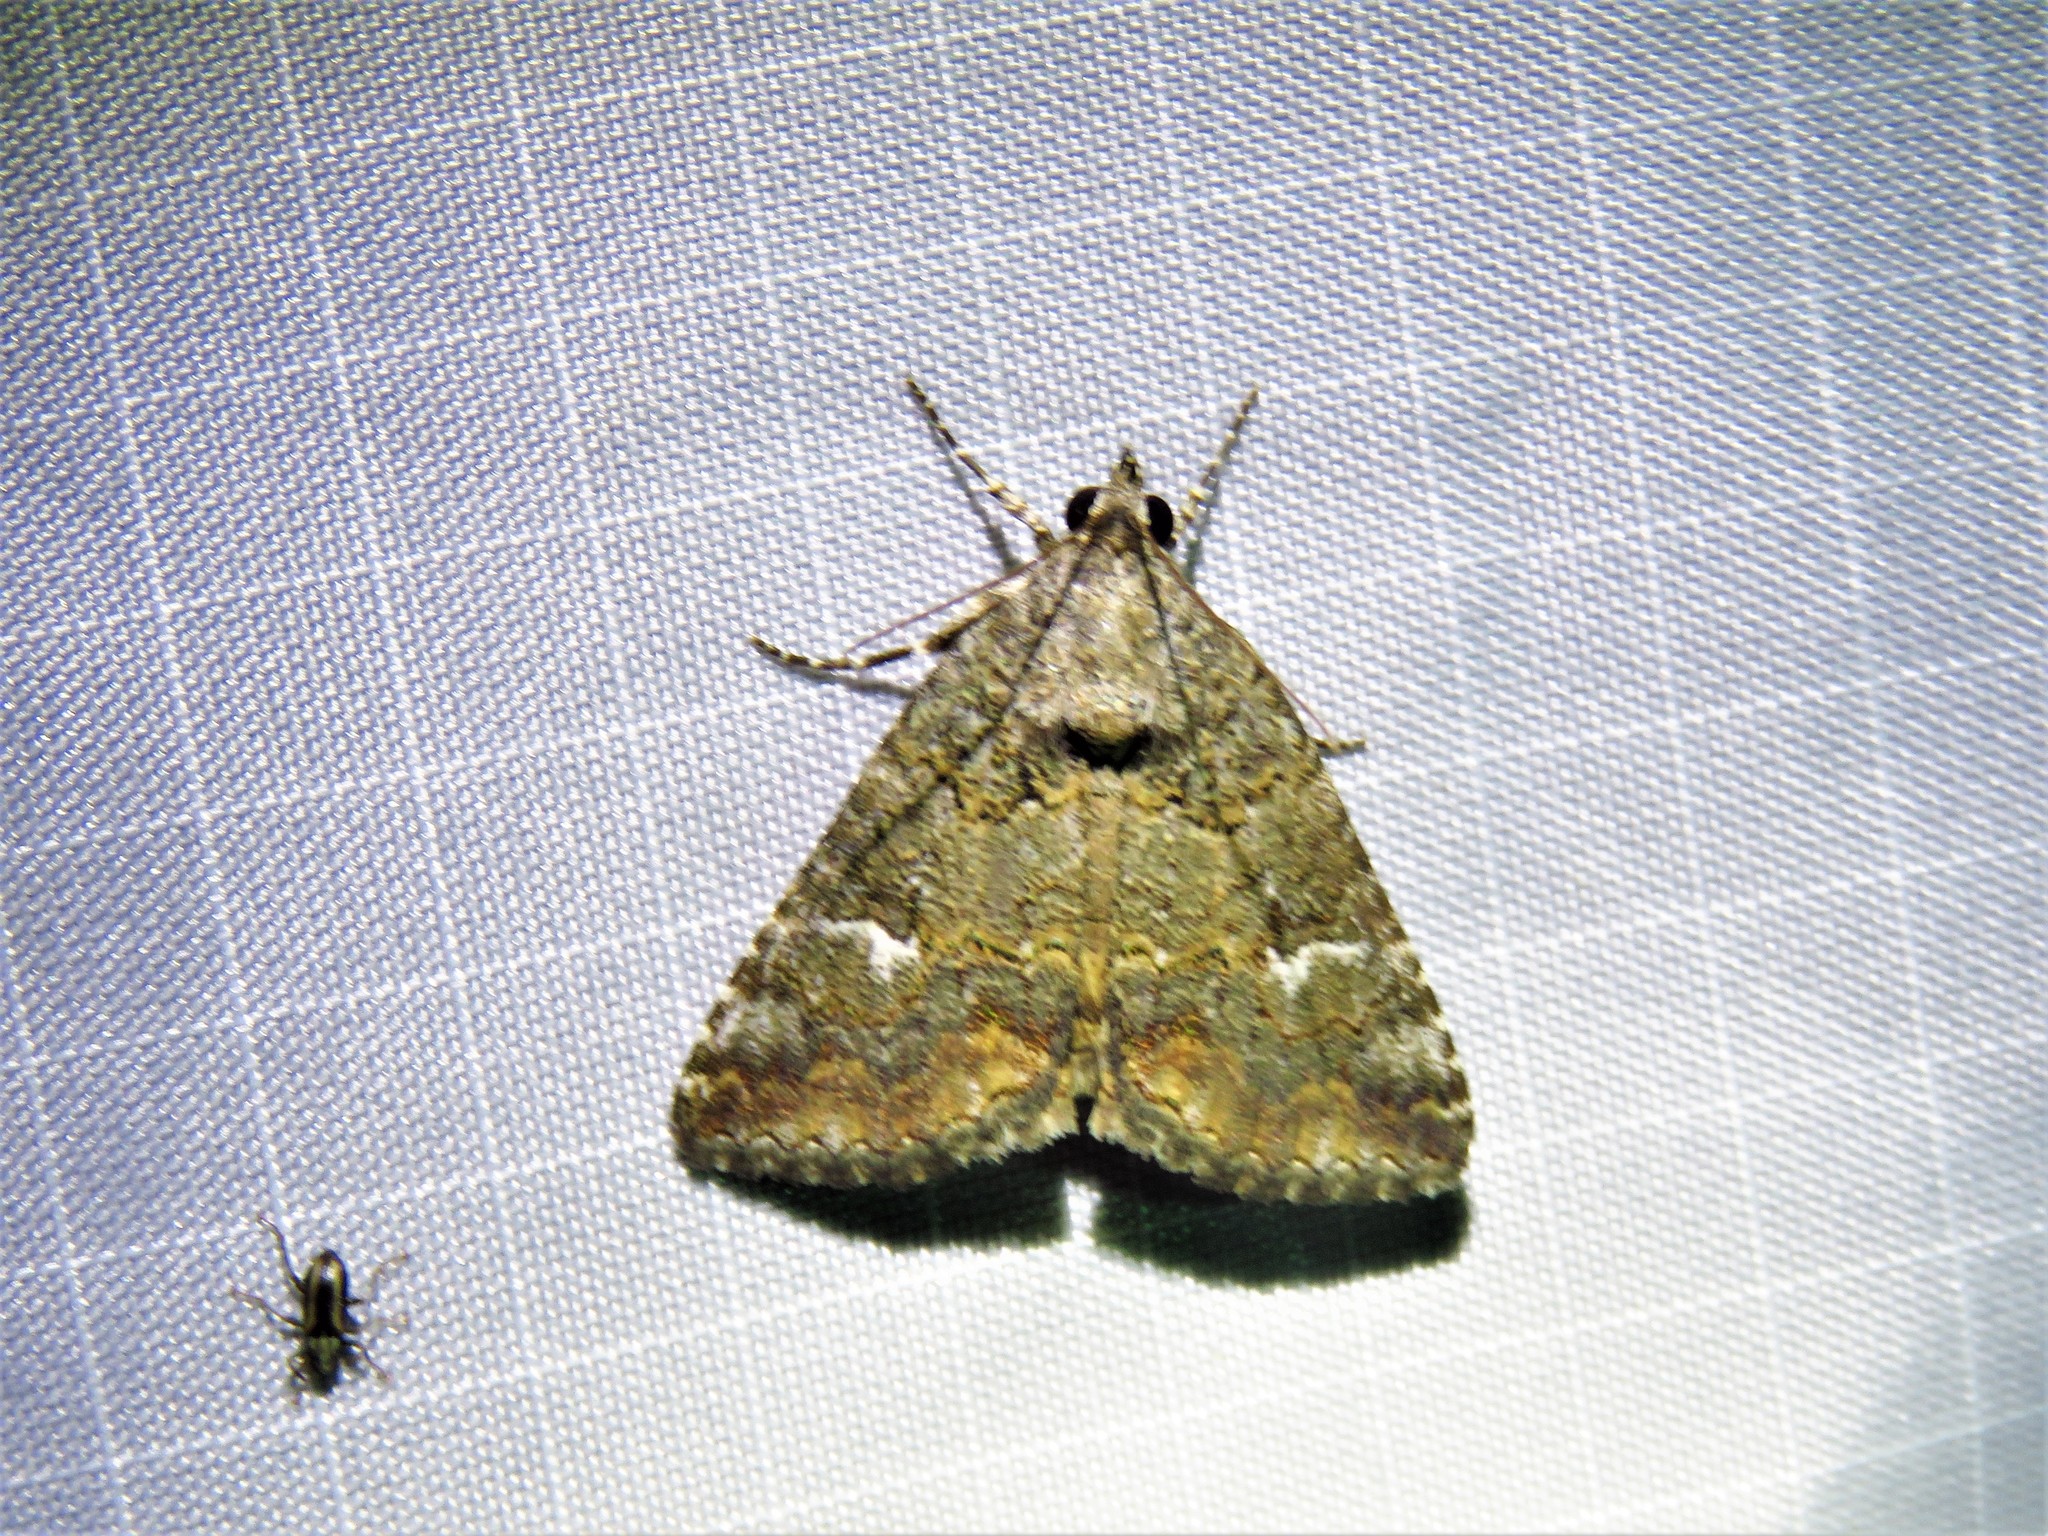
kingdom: Animalia
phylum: Arthropoda
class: Insecta
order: Lepidoptera
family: Erebidae
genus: Eubolina
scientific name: Eubolina impartialis
